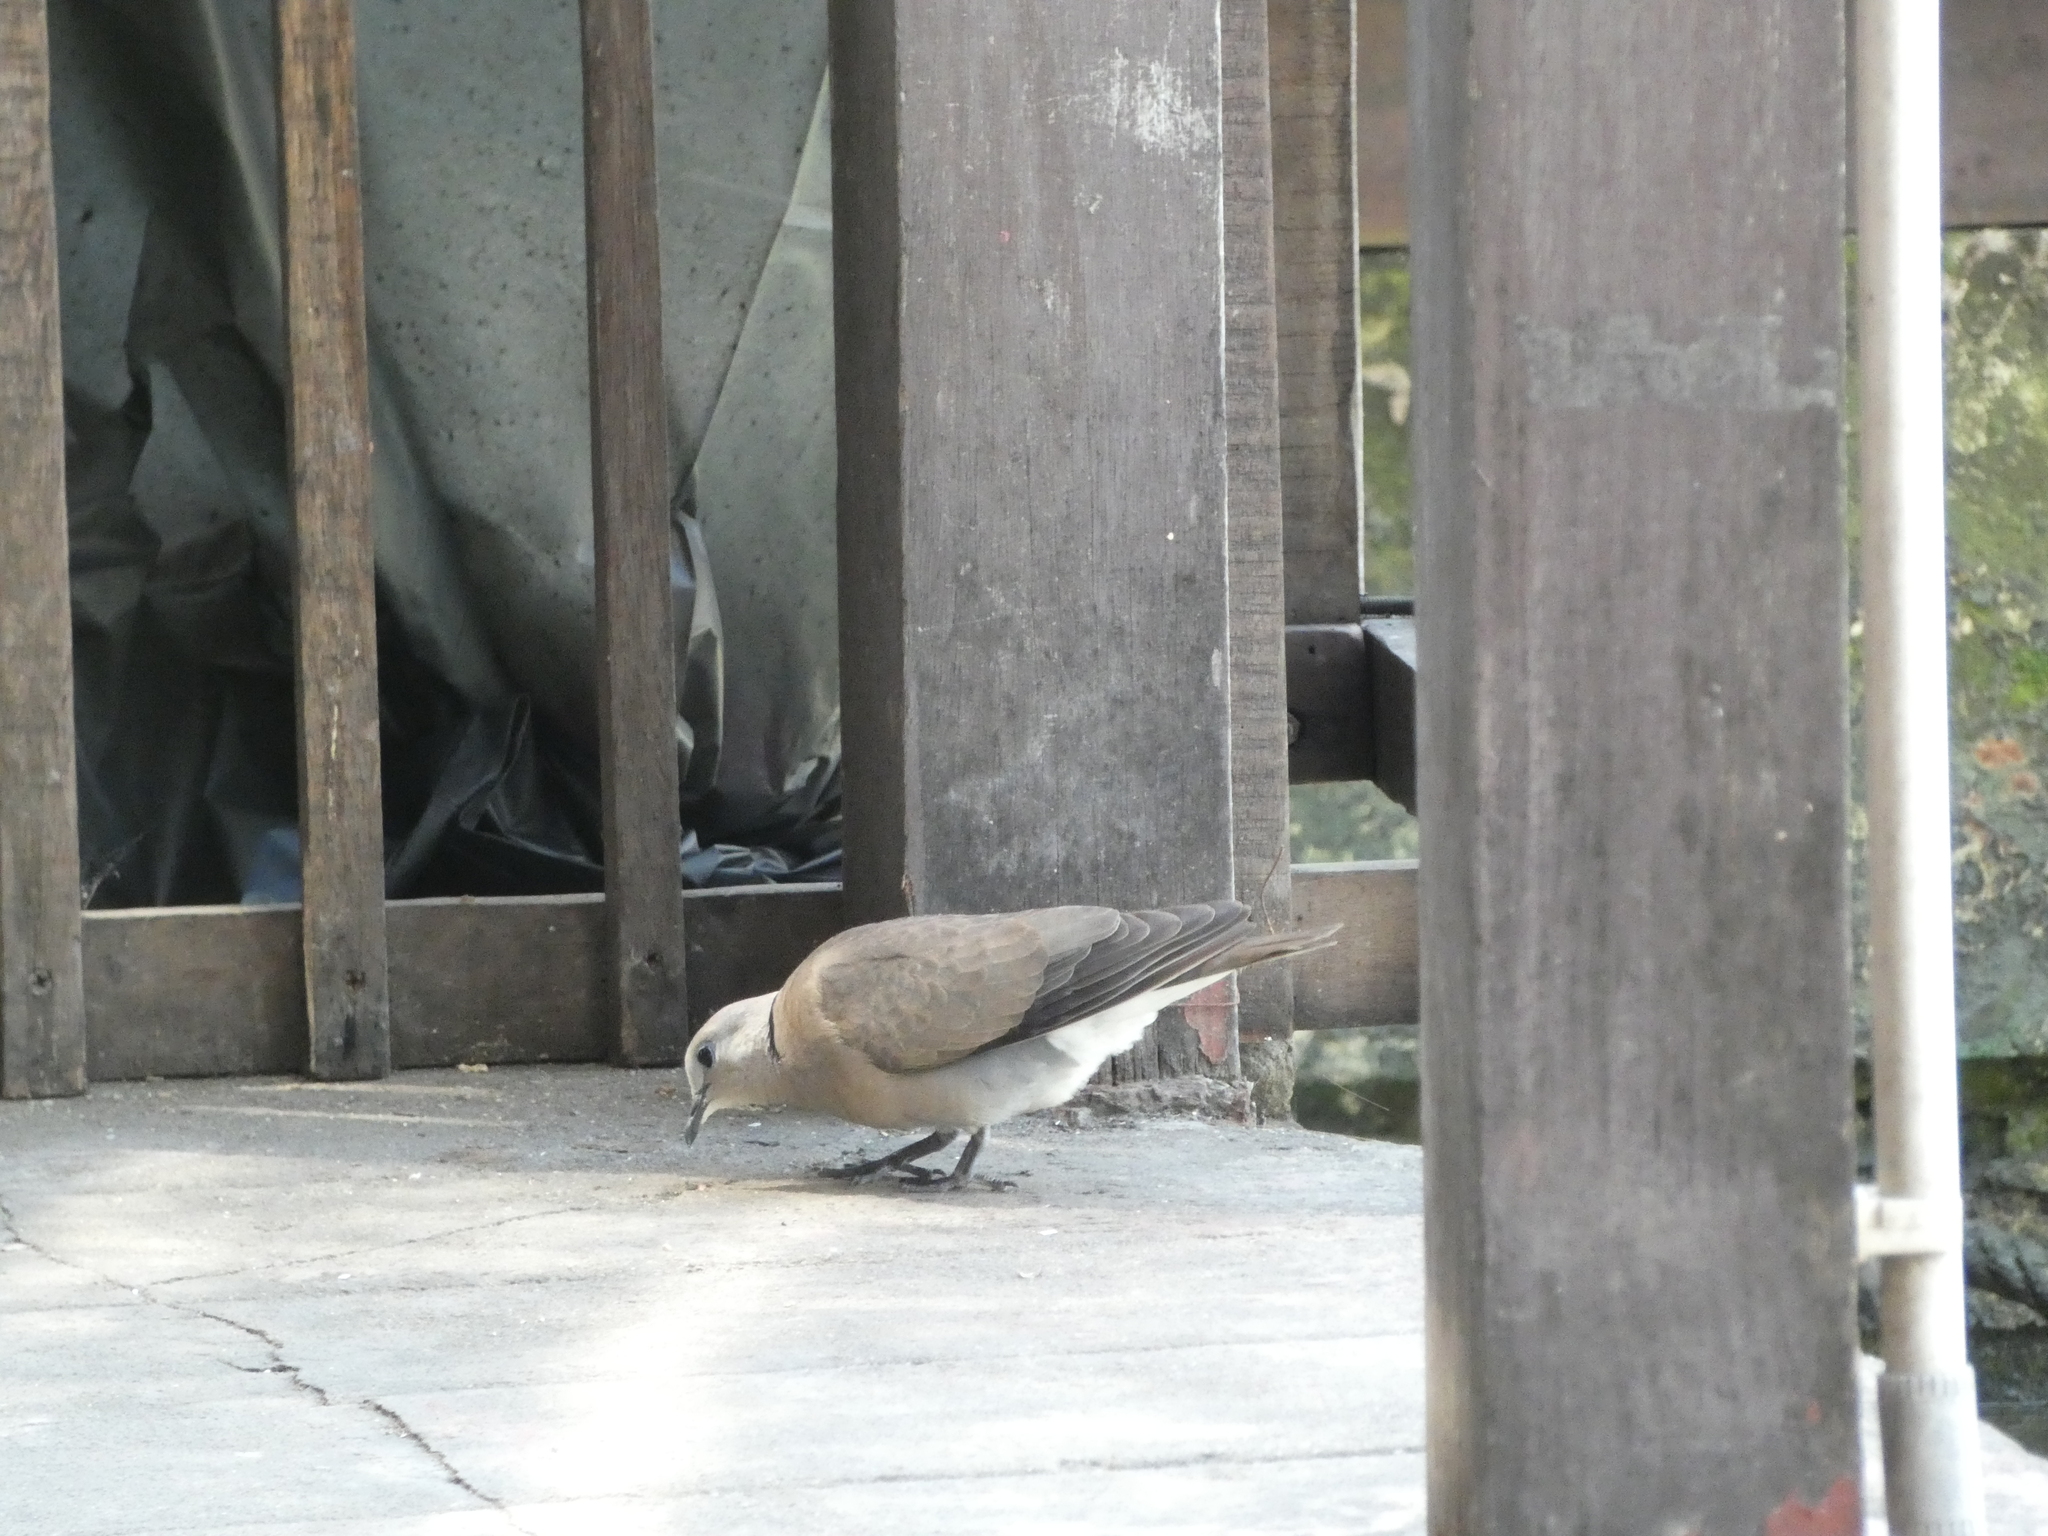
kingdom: Animalia
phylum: Chordata
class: Aves
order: Columbiformes
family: Columbidae
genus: Streptopelia
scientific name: Streptopelia tranquebarica
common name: Red turtle dove
